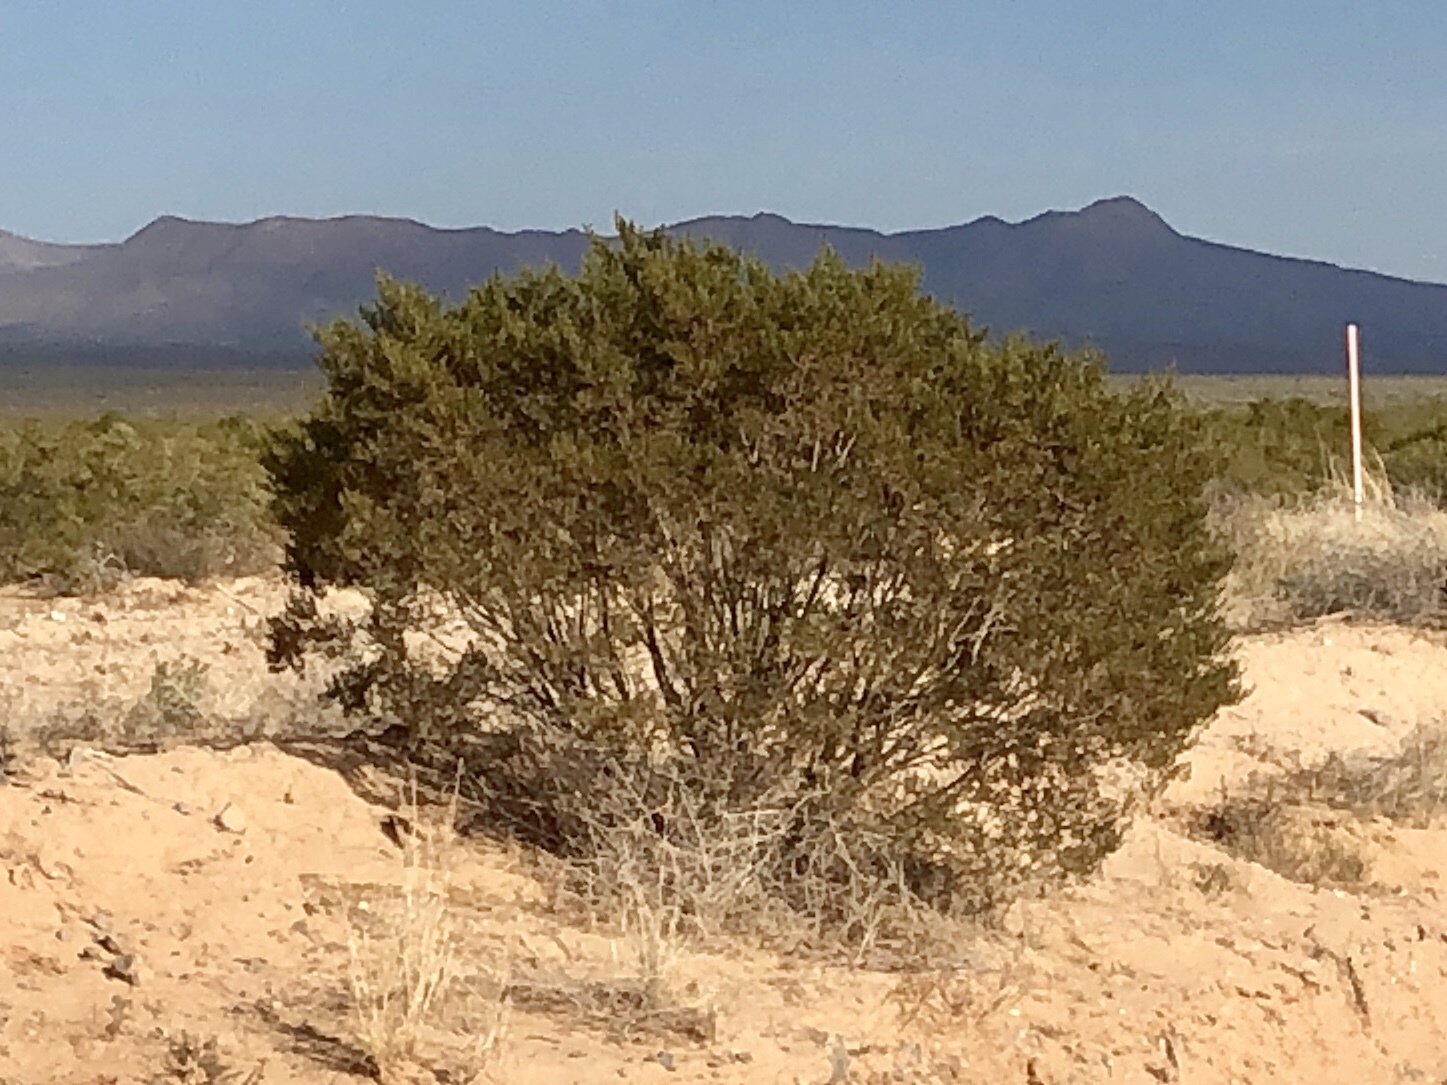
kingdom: Plantae
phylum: Tracheophyta
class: Magnoliopsida
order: Zygophyllales
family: Zygophyllaceae
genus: Larrea
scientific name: Larrea tridentata
